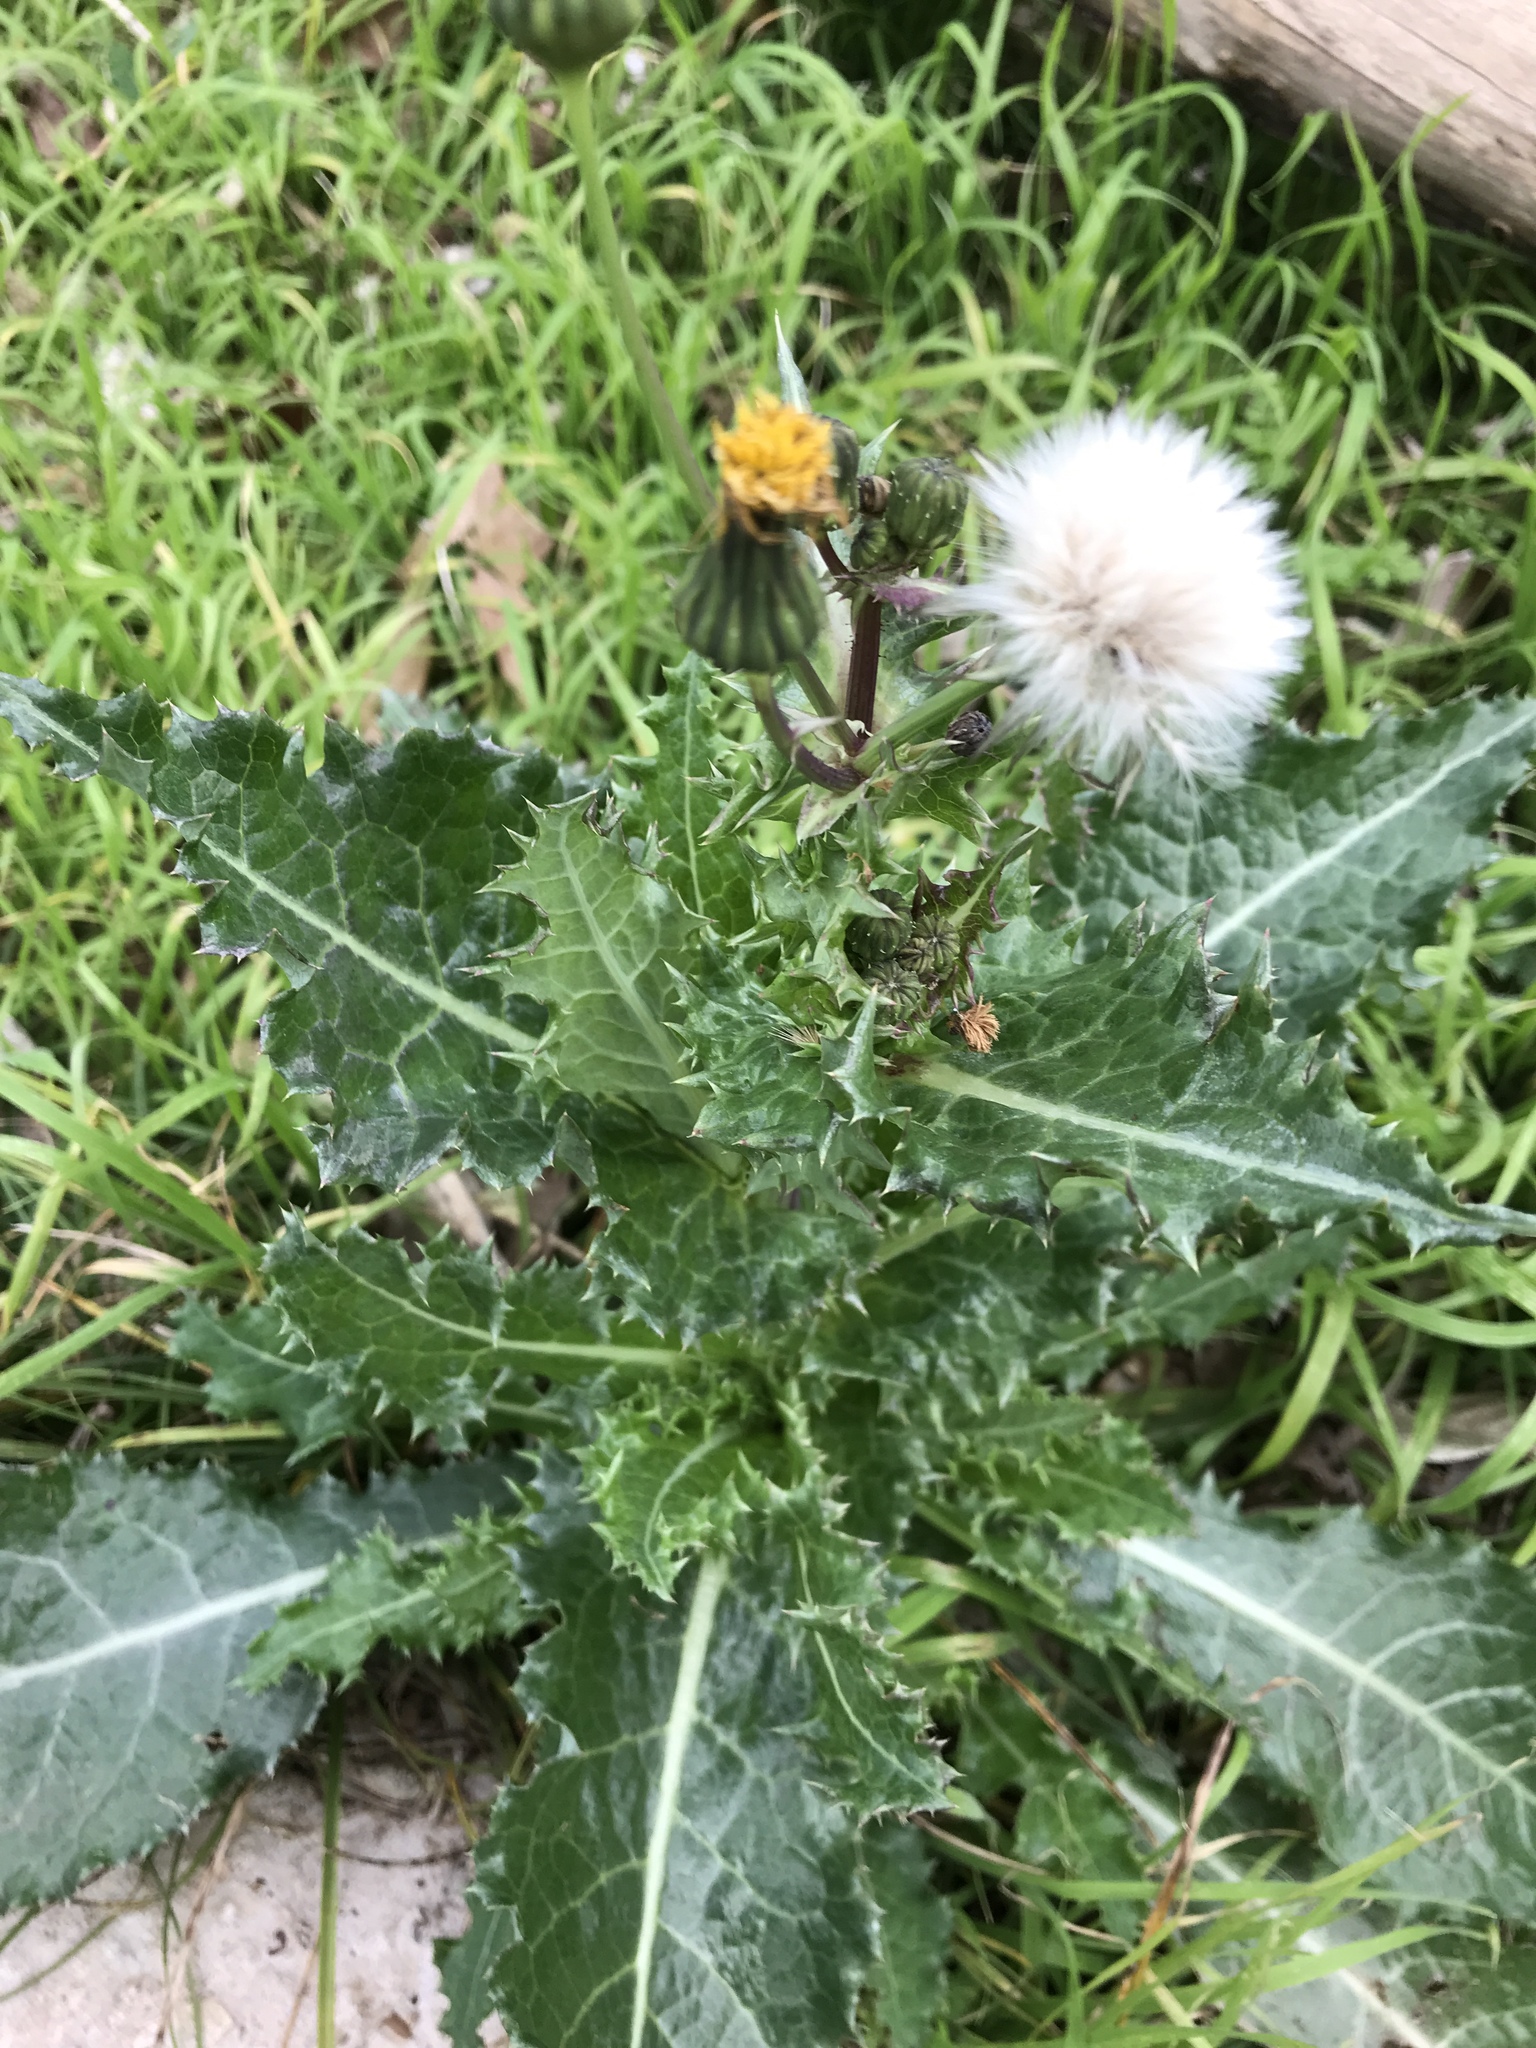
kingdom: Plantae
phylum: Tracheophyta
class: Magnoliopsida
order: Asterales
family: Asteraceae
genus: Sonchus
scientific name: Sonchus asper
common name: Prickly sow-thistle
